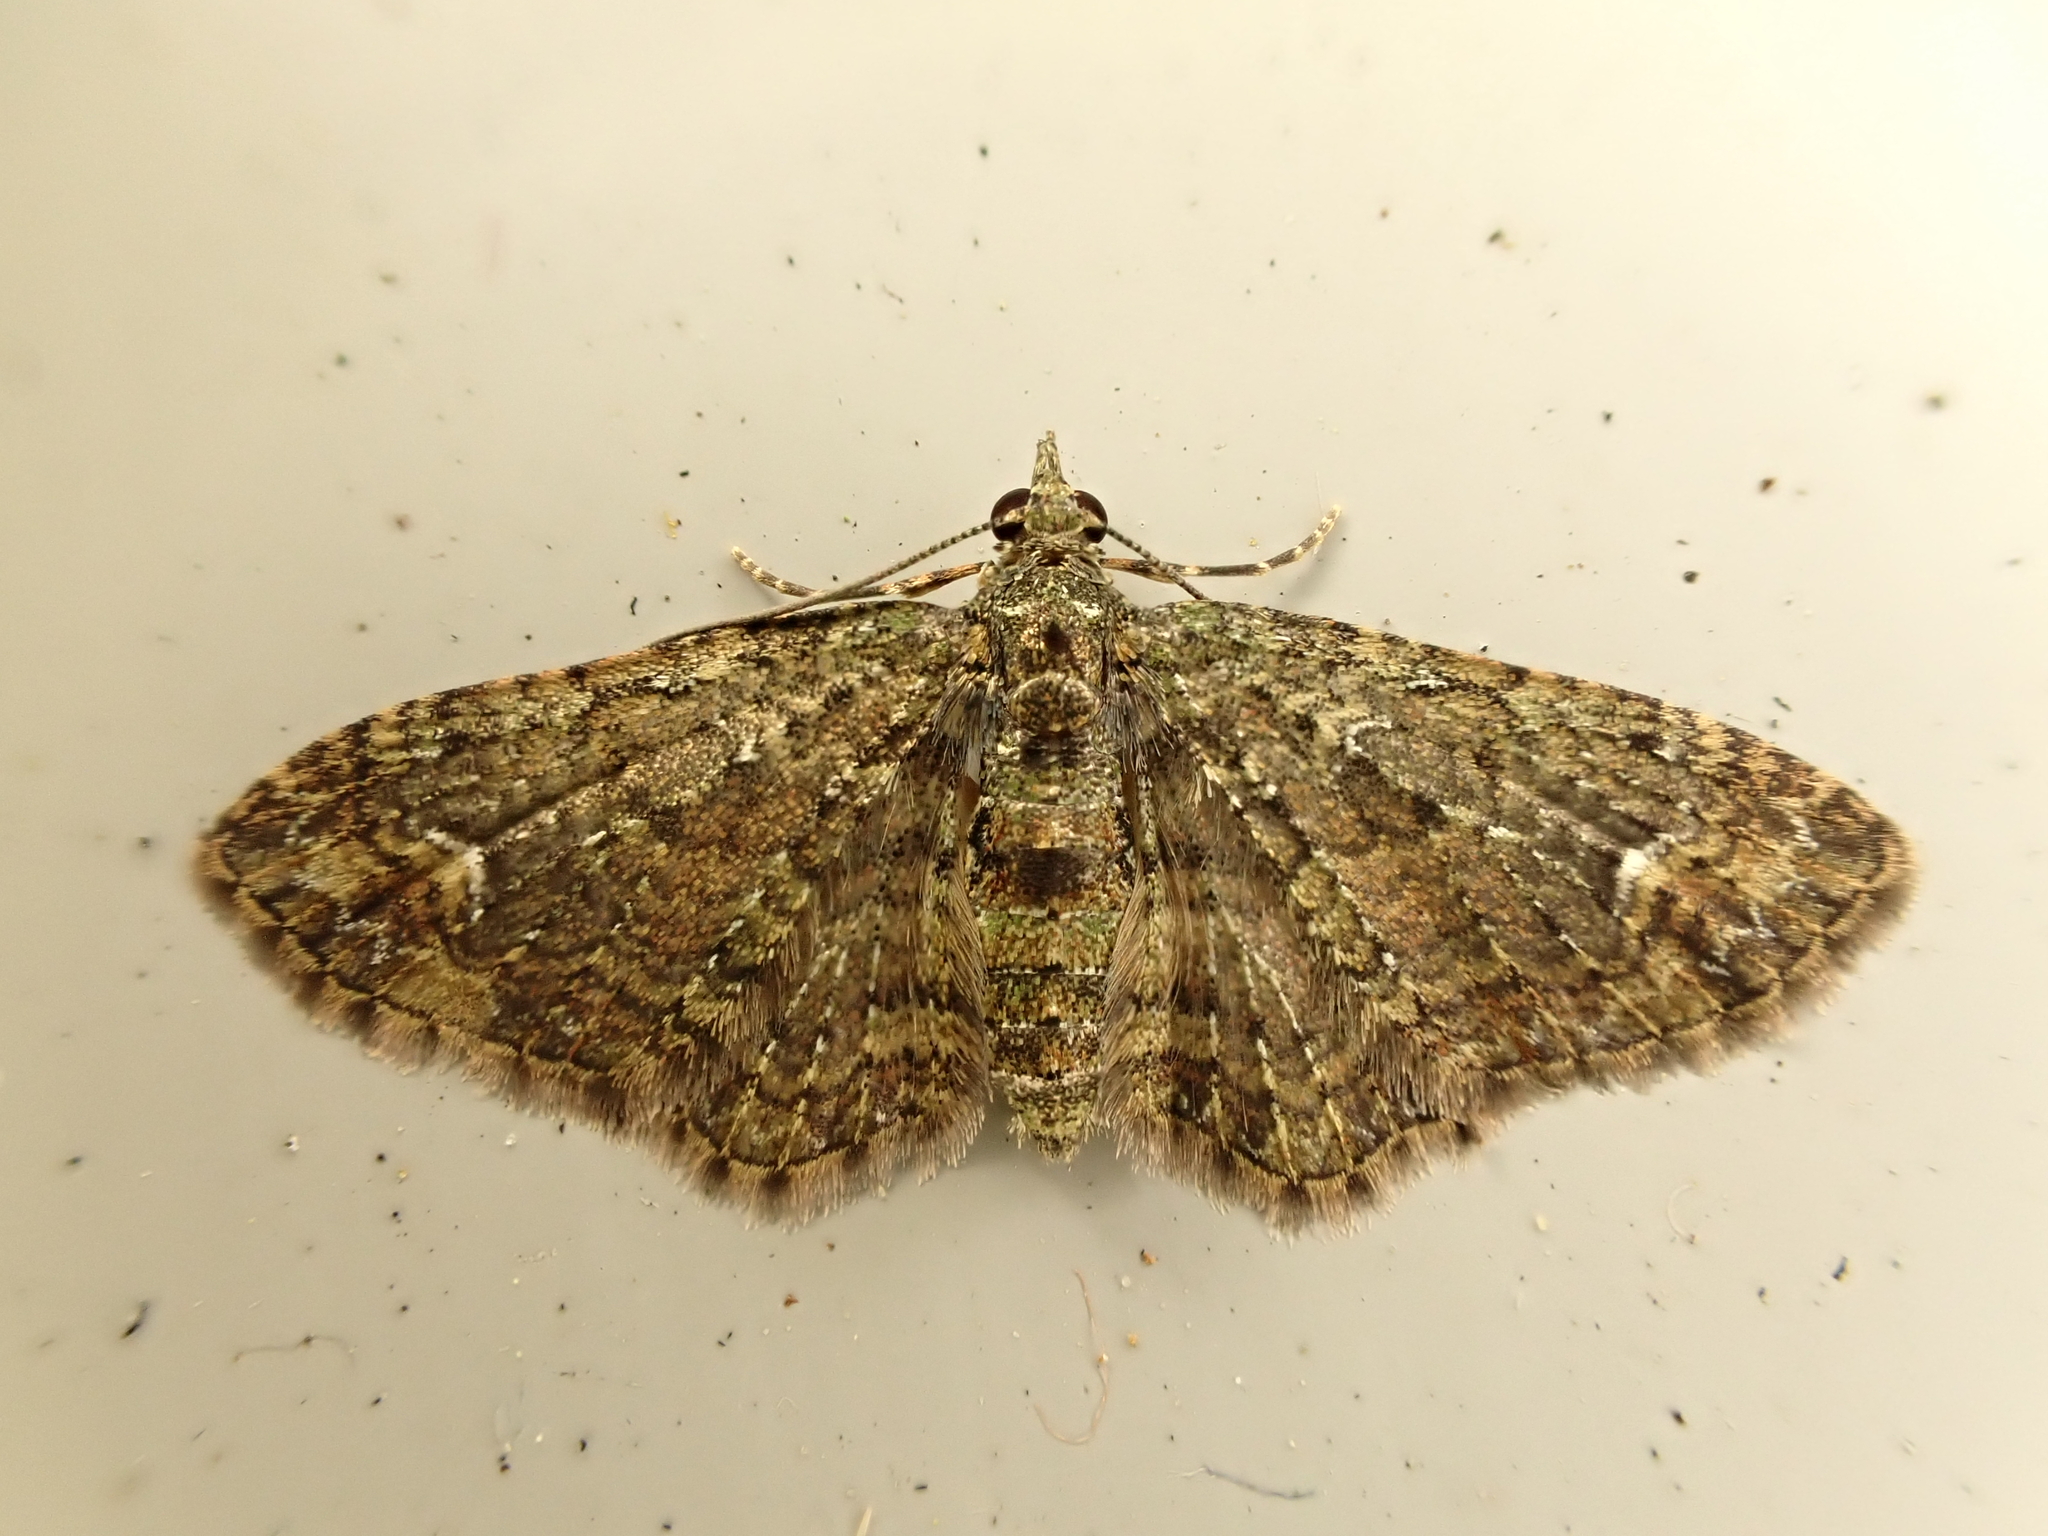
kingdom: Animalia
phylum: Arthropoda
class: Insecta
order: Lepidoptera
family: Geometridae
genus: Pasiphilodes
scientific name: Pasiphilodes testulata
